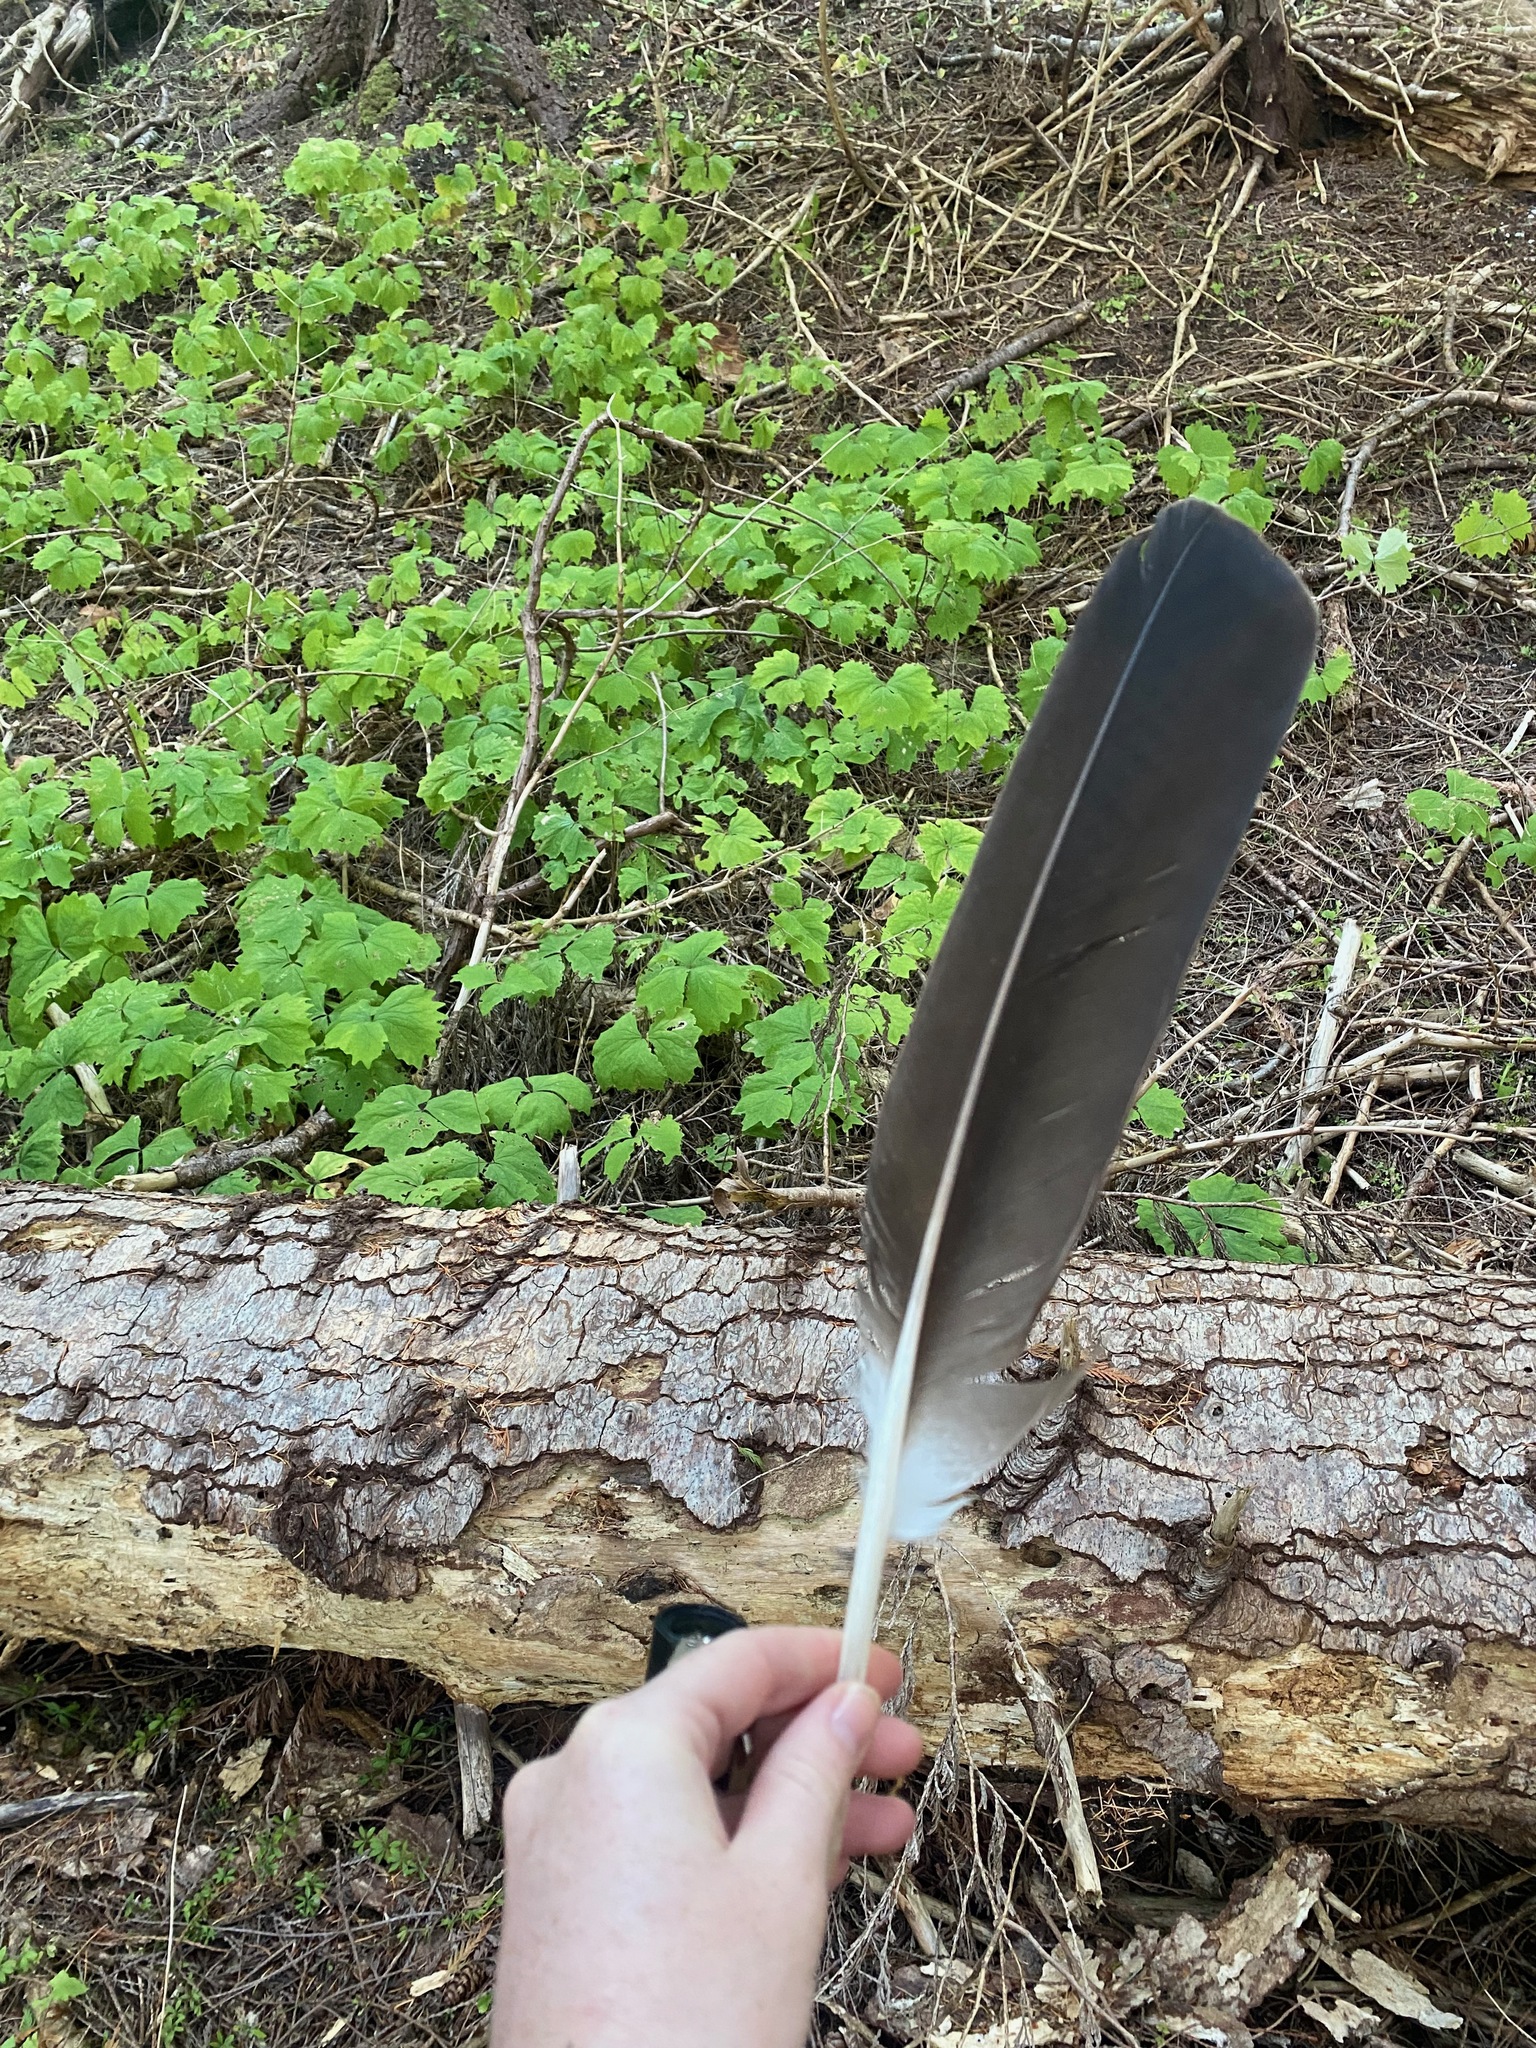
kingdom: Animalia
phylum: Chordata
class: Aves
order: Accipitriformes
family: Accipitridae
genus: Haliaeetus
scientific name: Haliaeetus leucocephalus
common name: Bald eagle
